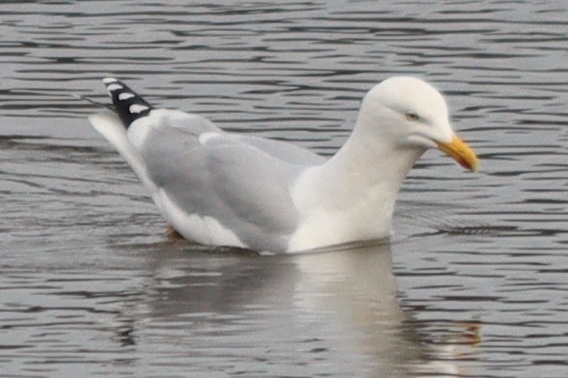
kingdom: Animalia
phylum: Chordata
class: Aves
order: Charadriiformes
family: Laridae
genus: Larus
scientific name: Larus argentatus
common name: Herring gull
